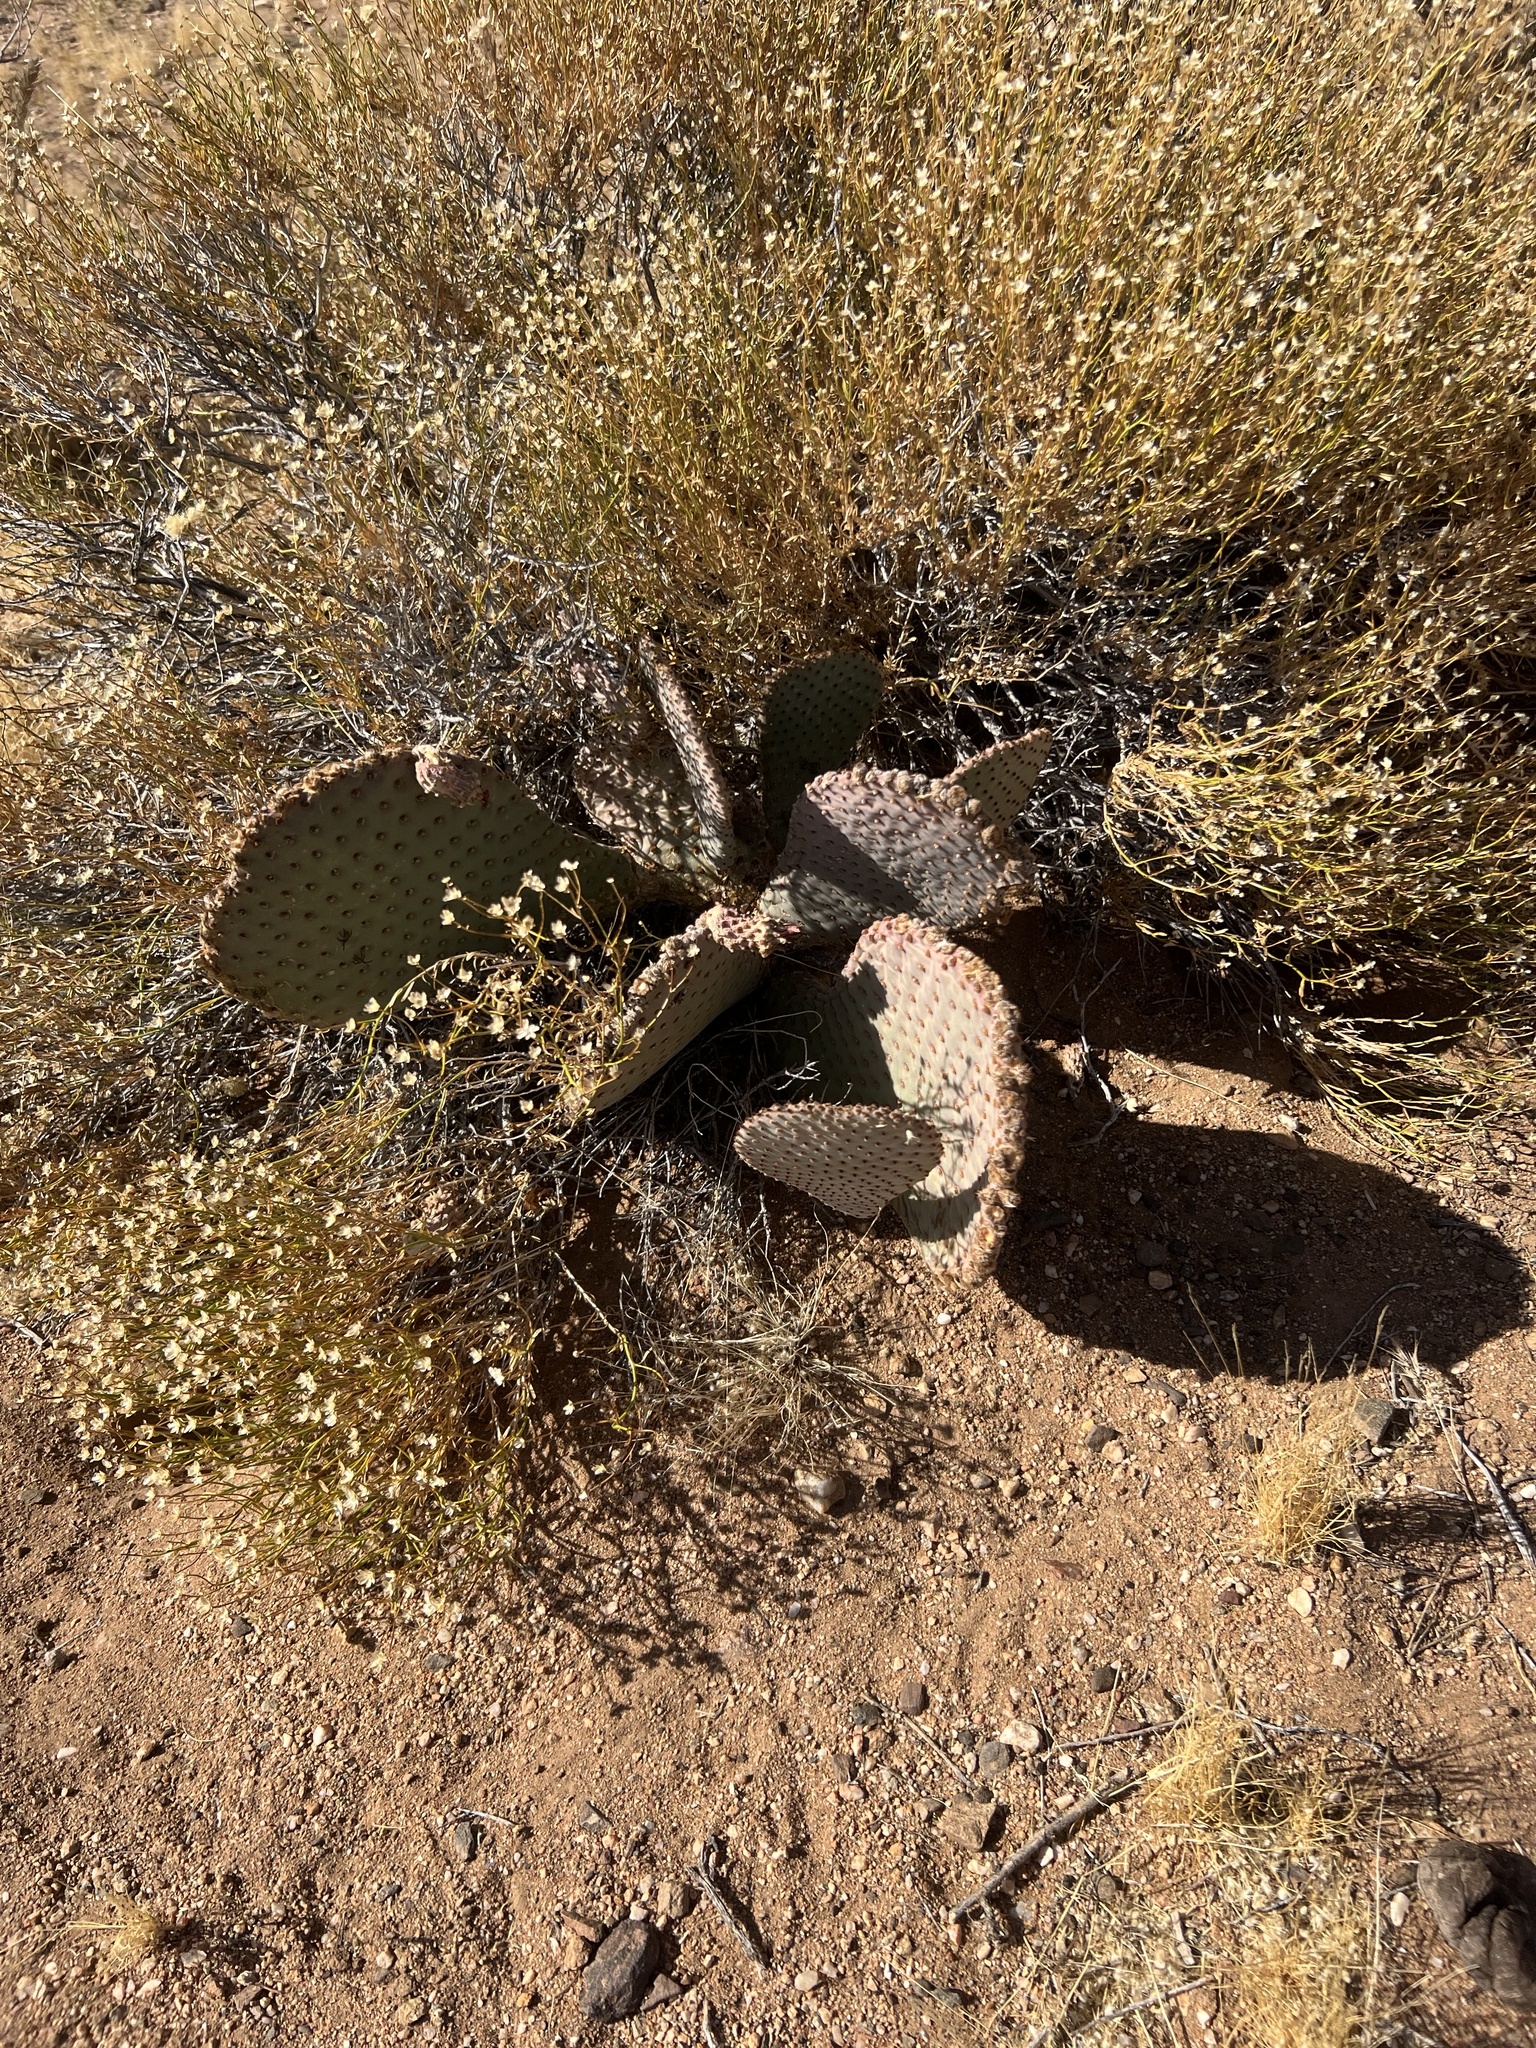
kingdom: Plantae
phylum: Tracheophyta
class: Magnoliopsida
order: Caryophyllales
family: Cactaceae
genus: Opuntia
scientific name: Opuntia basilaris
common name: Beavertail prickly-pear
